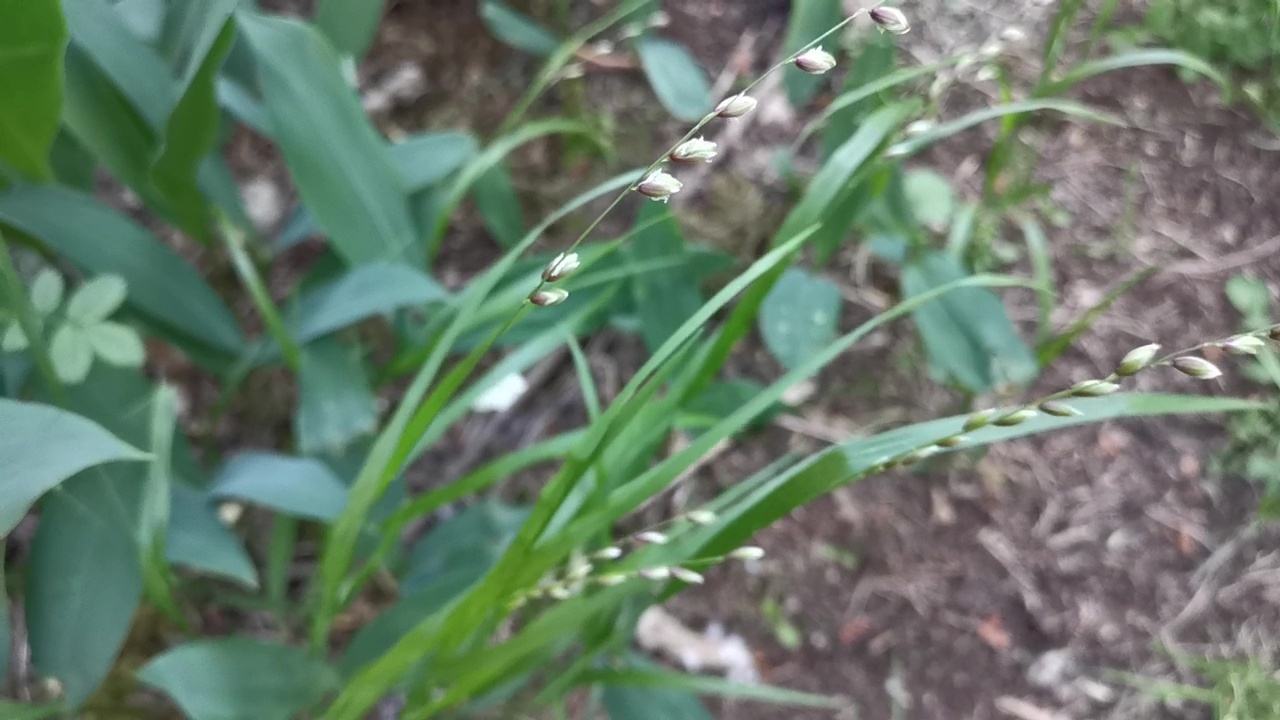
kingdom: Plantae
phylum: Tracheophyta
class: Liliopsida
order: Poales
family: Poaceae
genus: Melica
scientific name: Melica nutans
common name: Mountain melick
